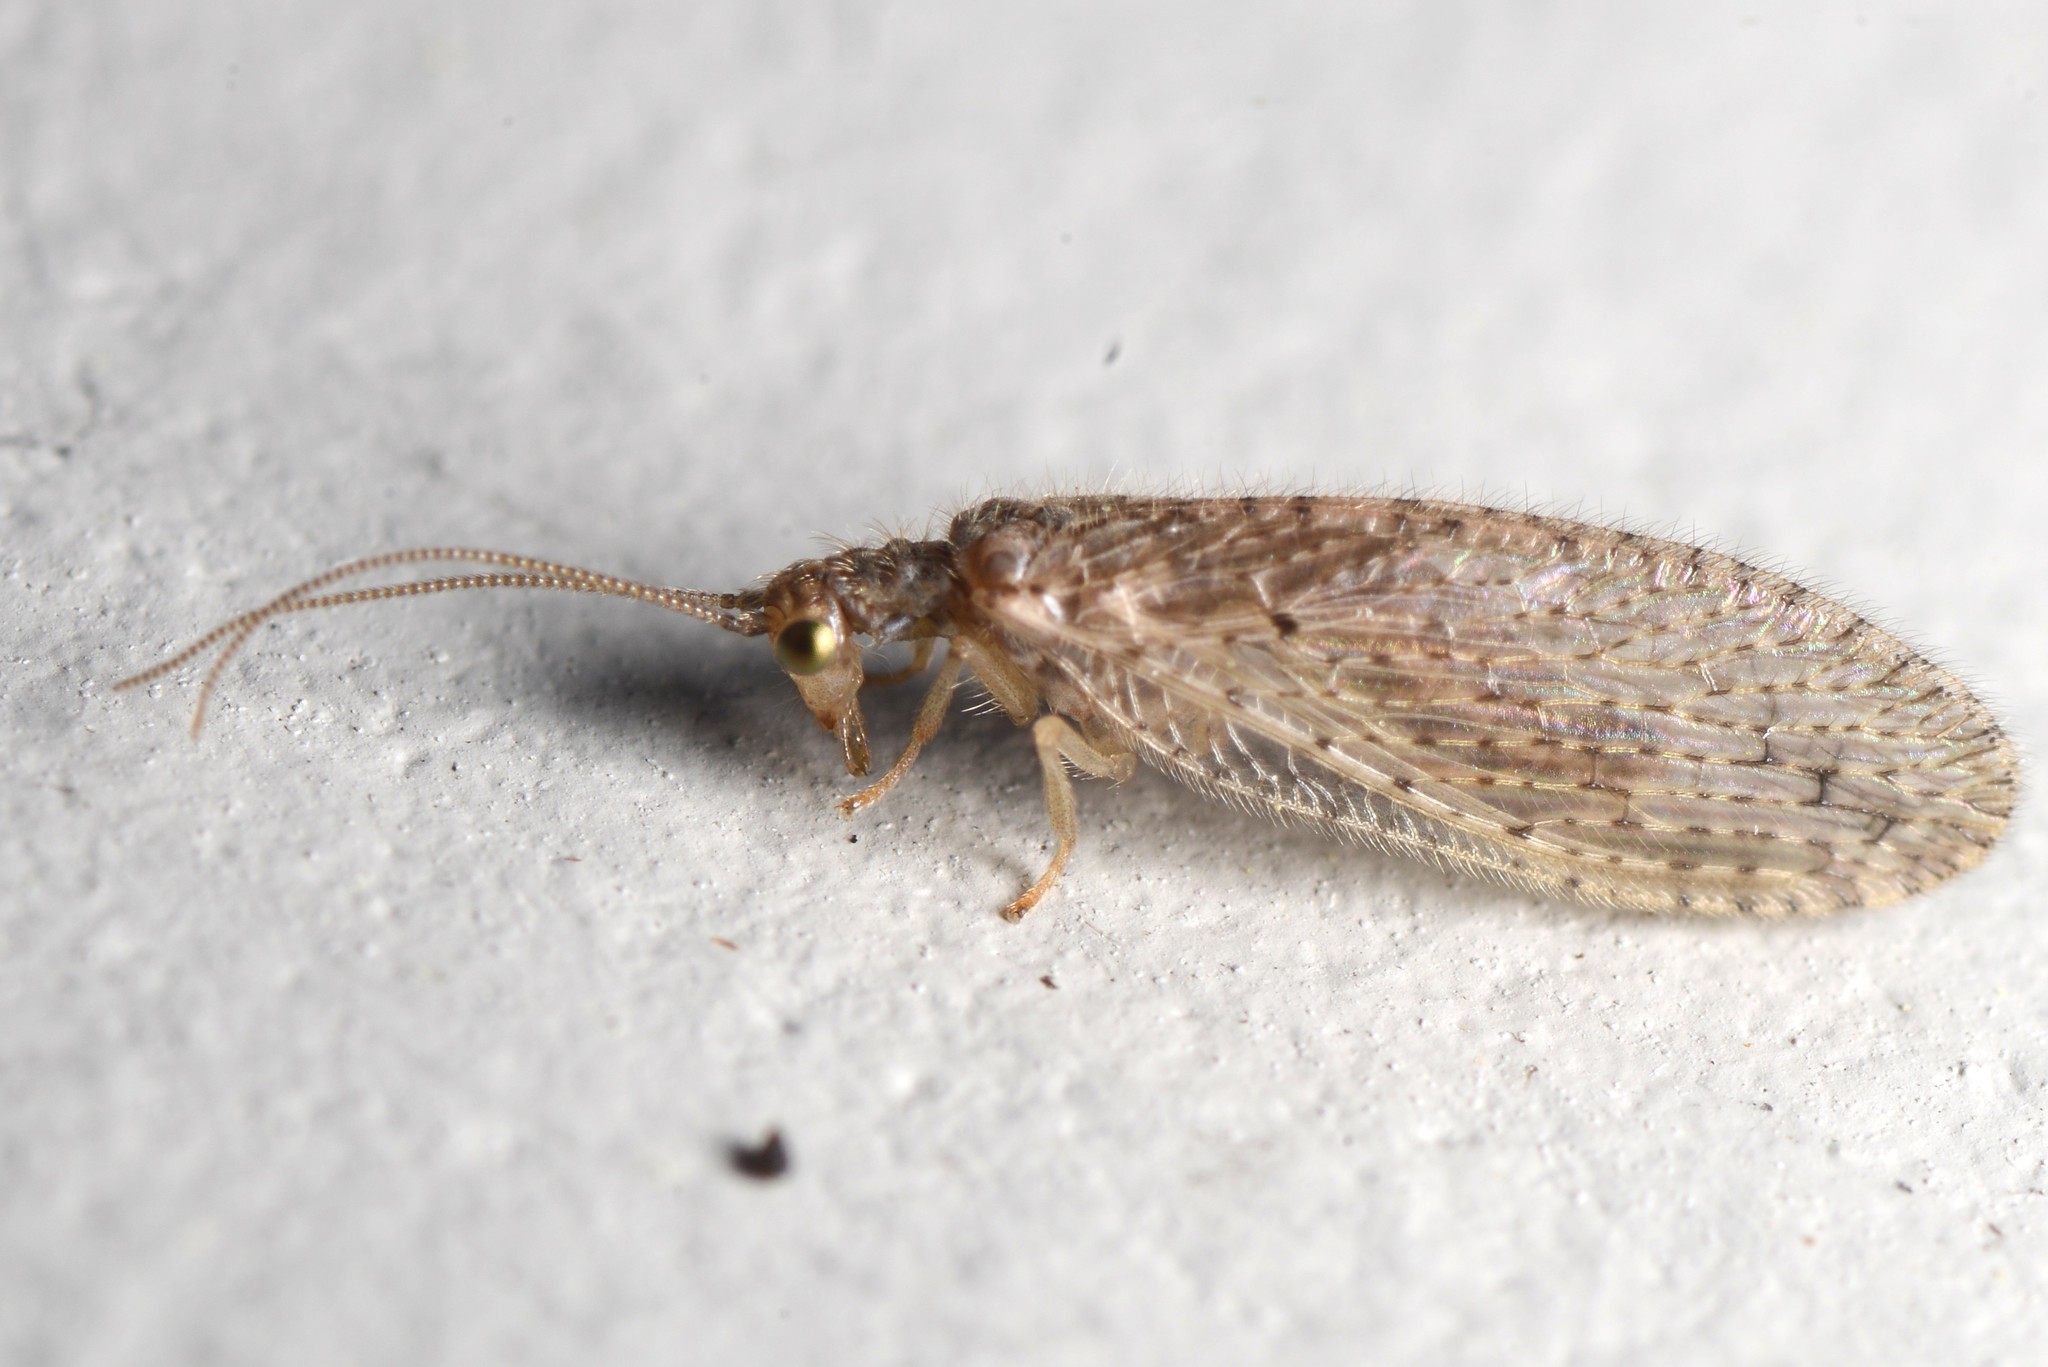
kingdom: Animalia
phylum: Arthropoda
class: Insecta
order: Neuroptera
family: Hemerobiidae
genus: Micromus
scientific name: Micromus tasmaniae
